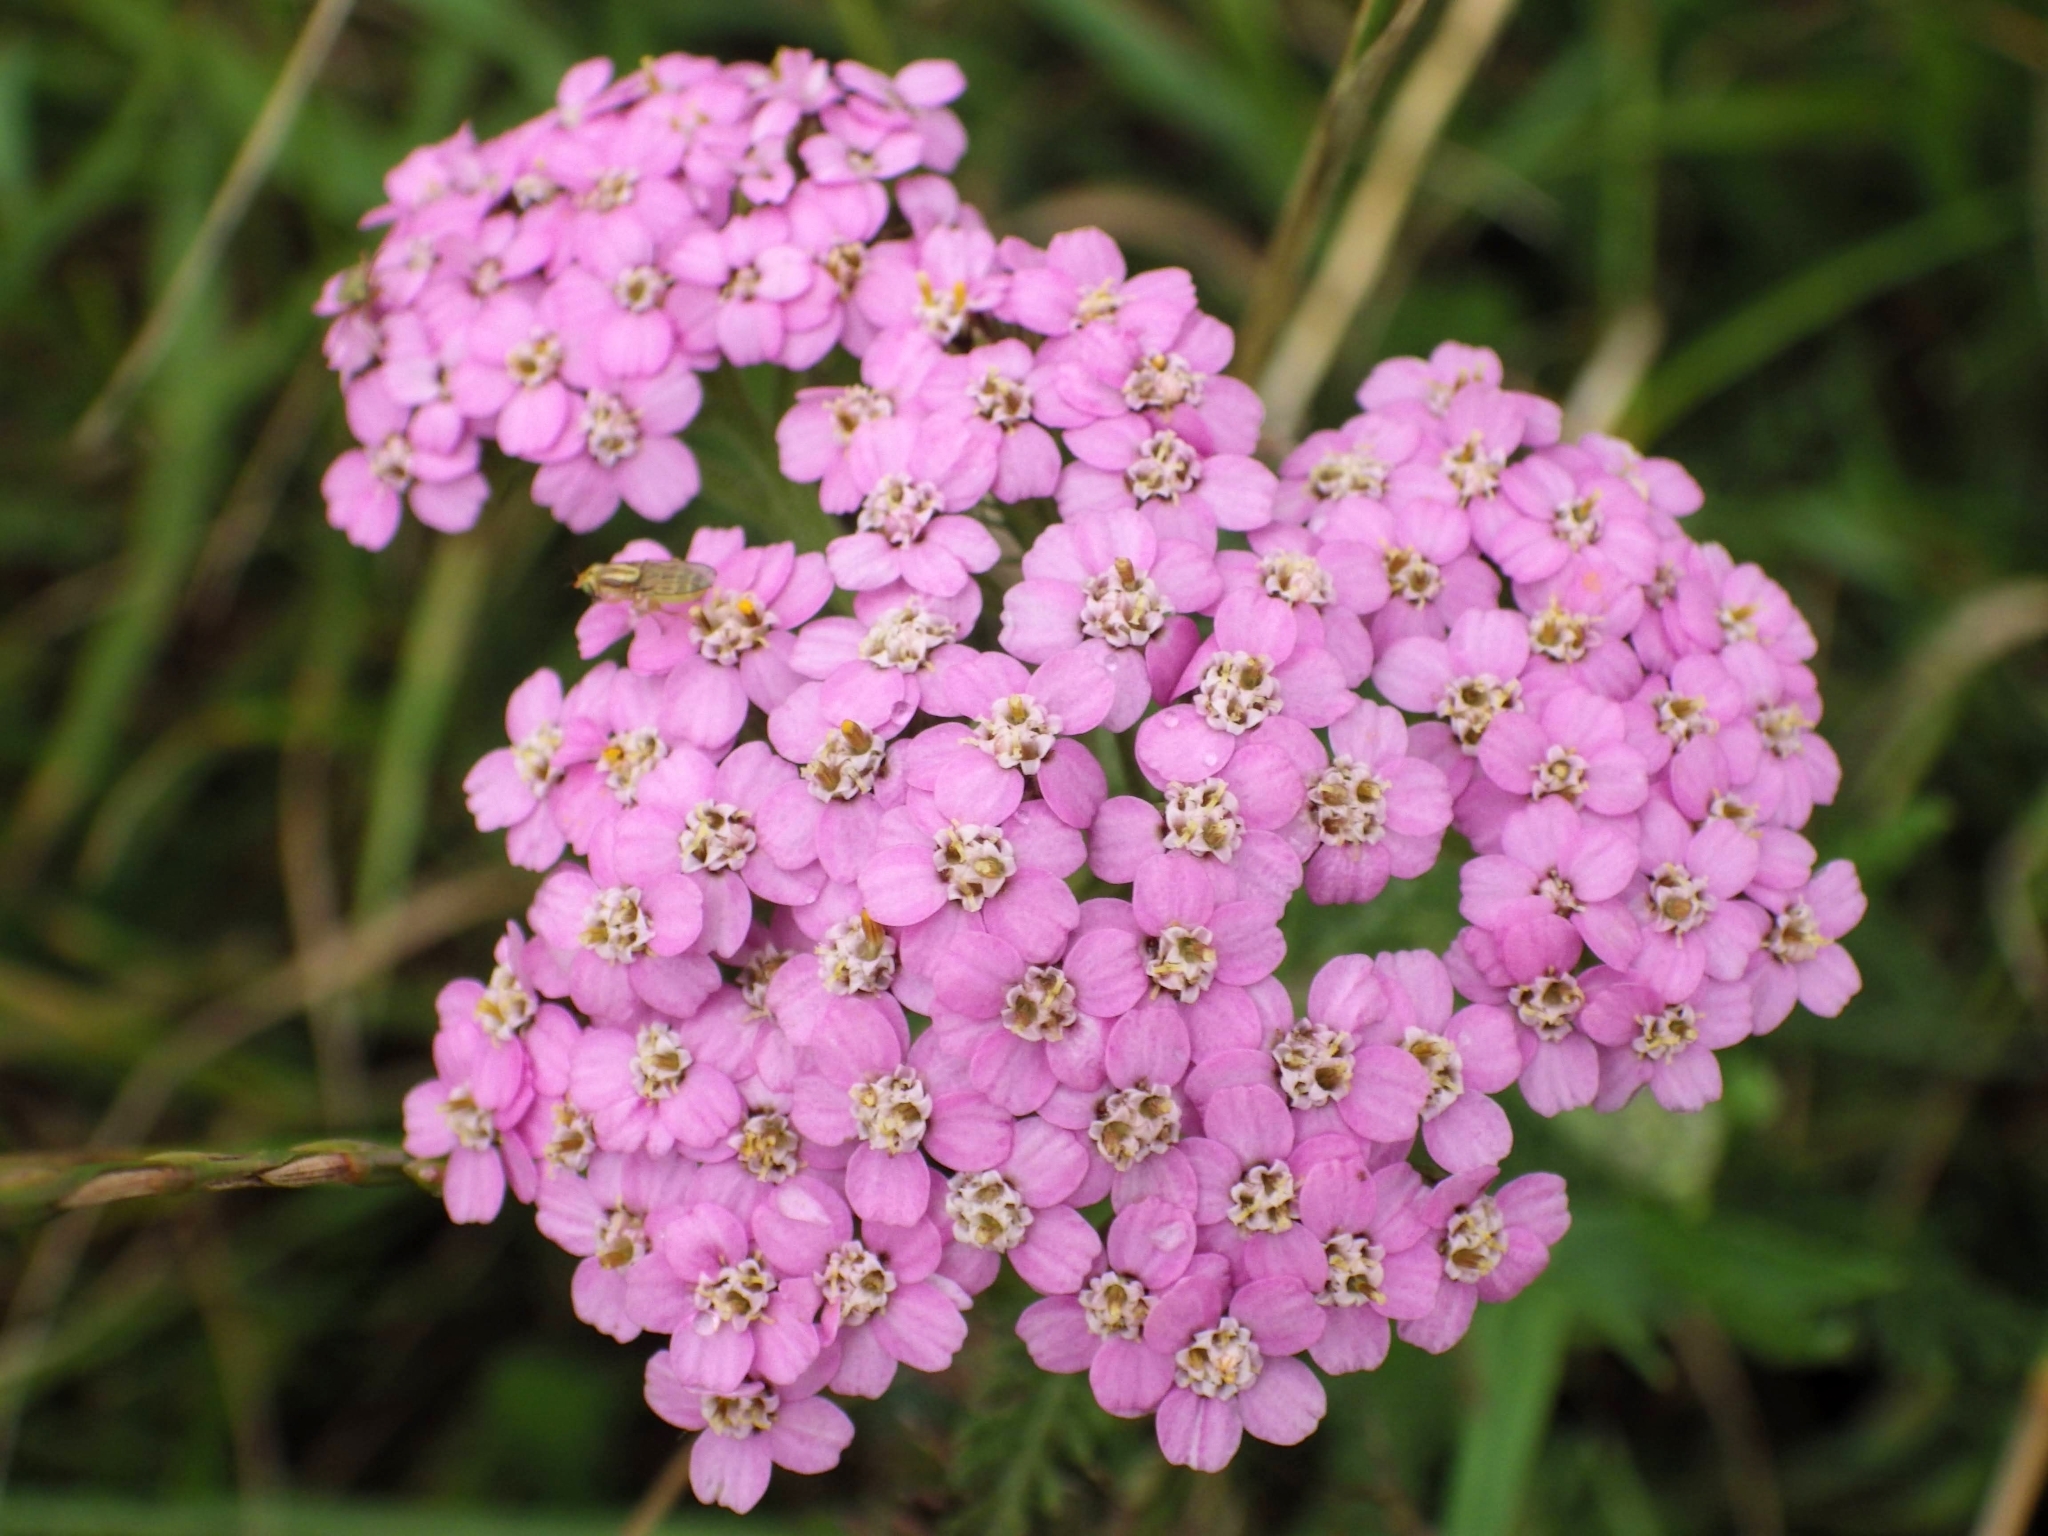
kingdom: Plantae
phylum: Tracheophyta
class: Magnoliopsida
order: Asterales
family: Asteraceae
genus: Achillea
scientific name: Achillea millefolium
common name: Yarrow
